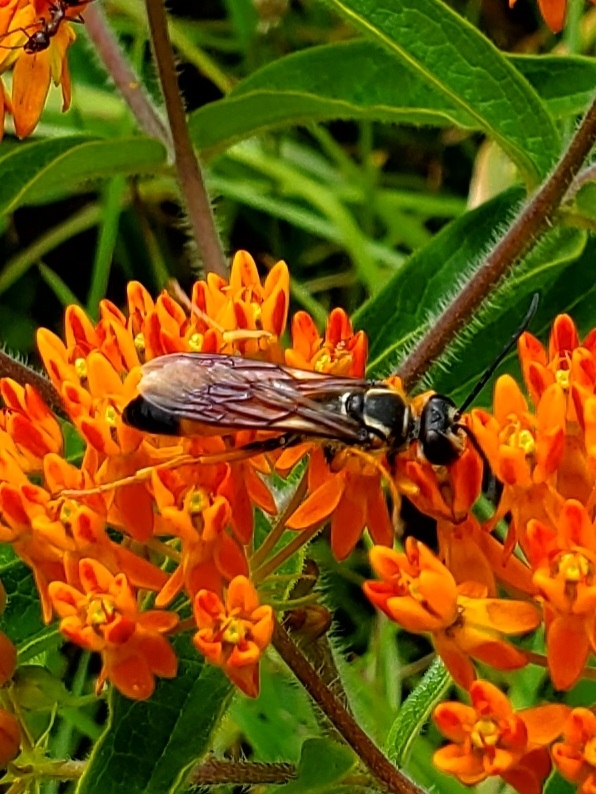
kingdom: Animalia
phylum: Arthropoda
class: Insecta
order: Hymenoptera
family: Sphecidae
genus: Sphex
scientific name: Sphex ichneumoneus
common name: Great golden digger wasp
